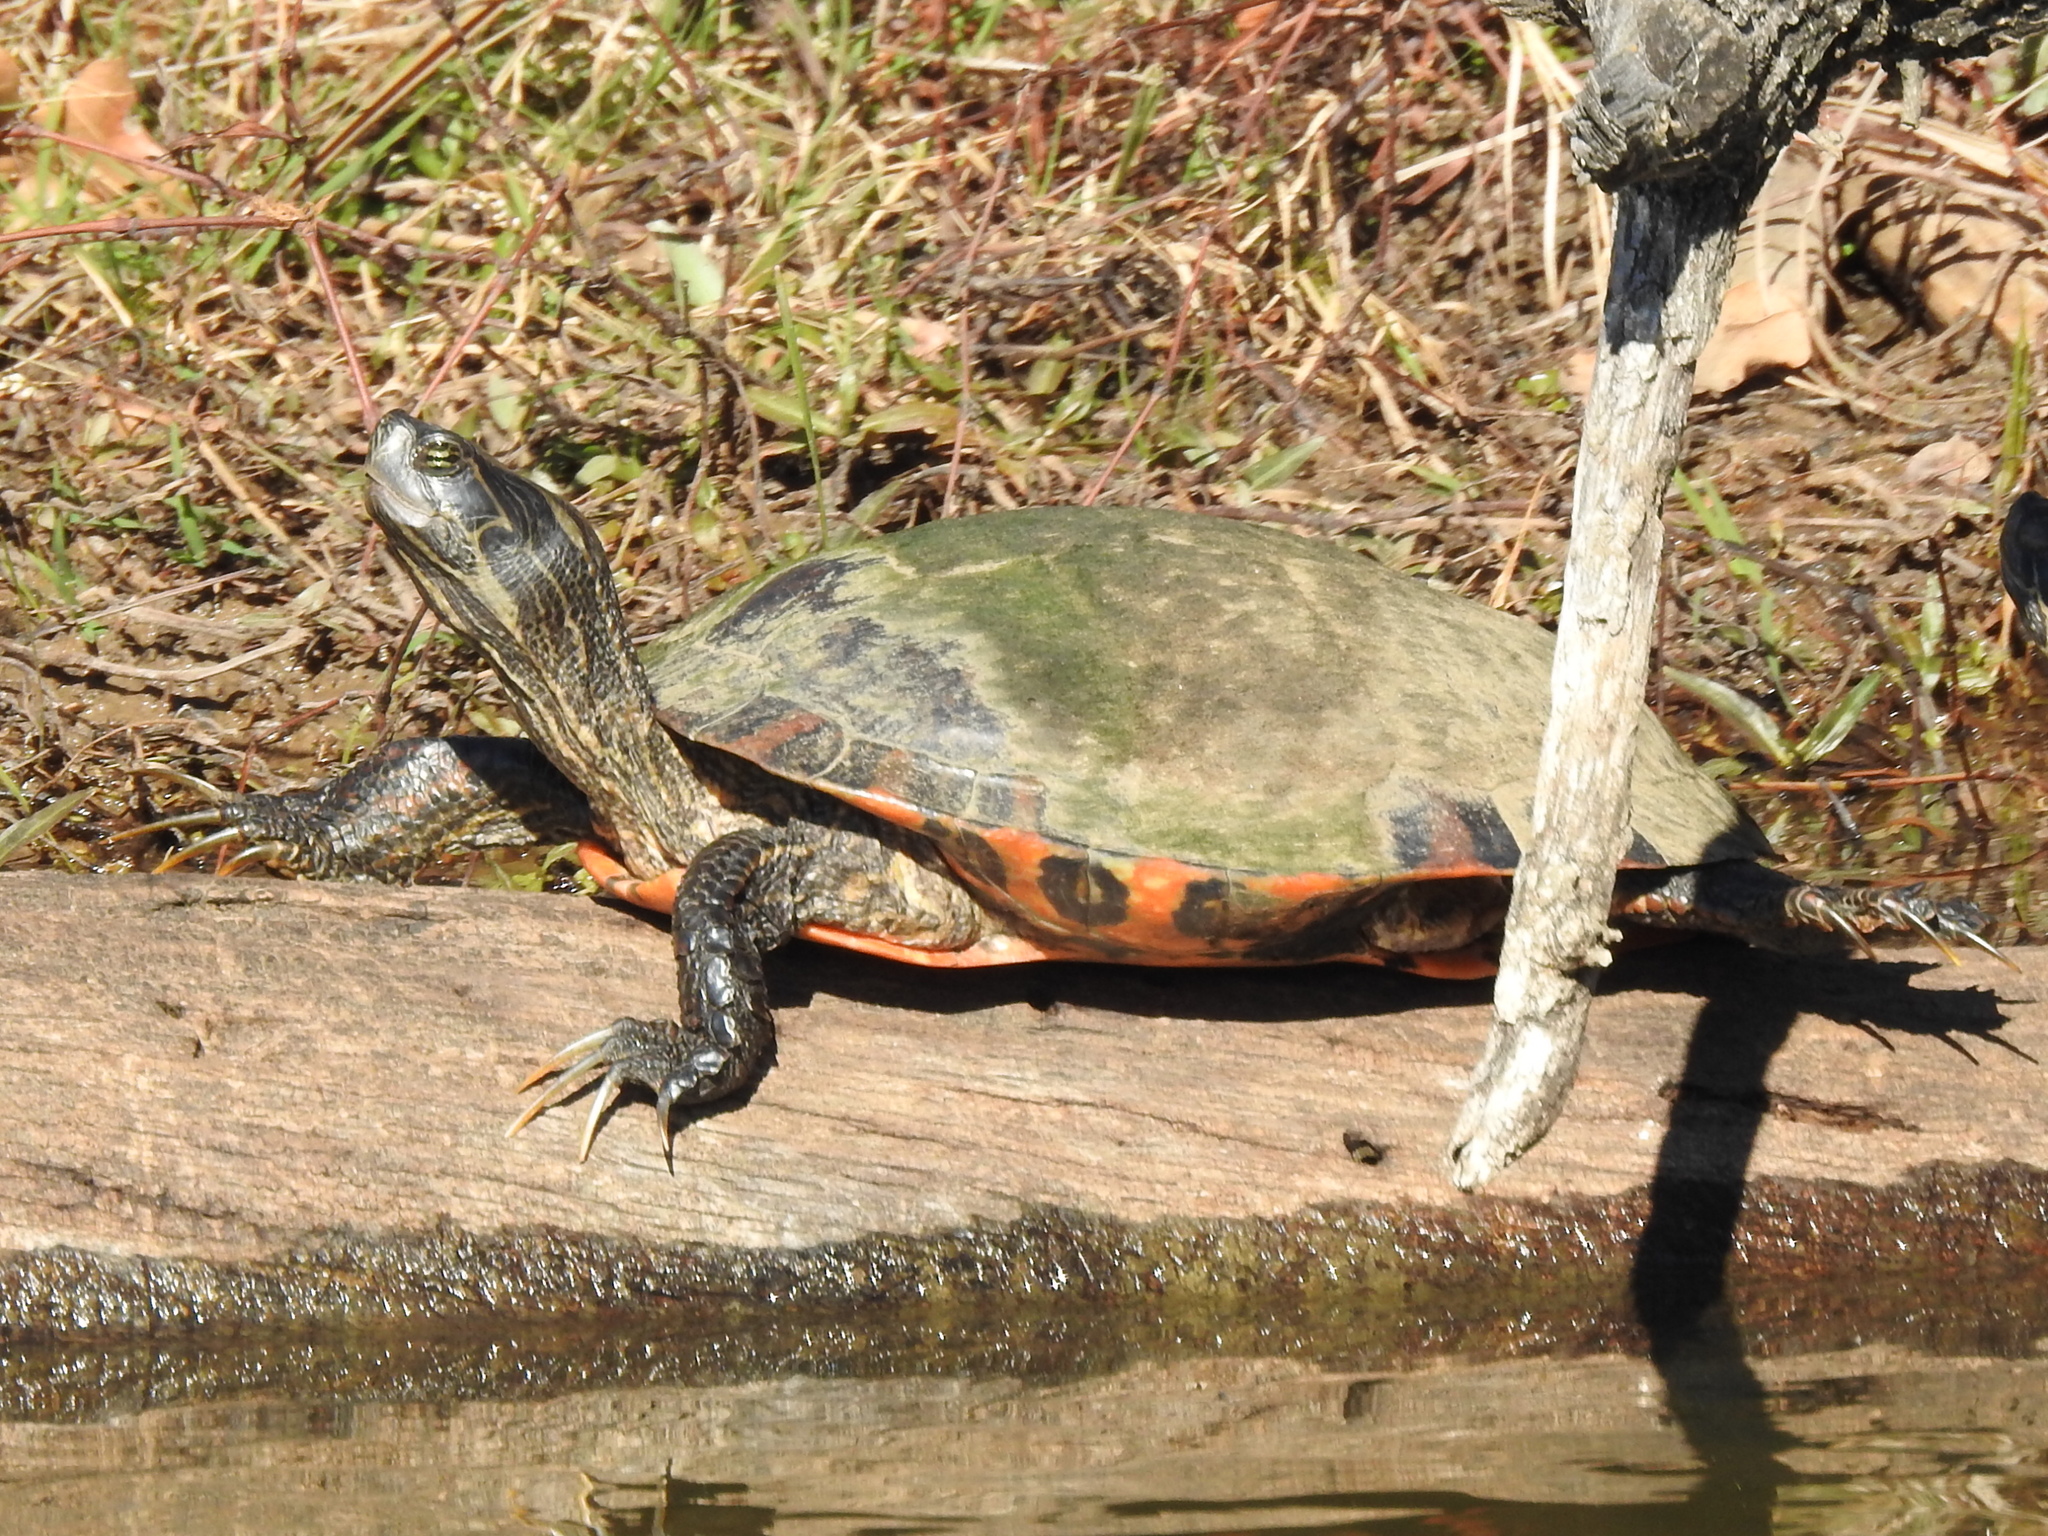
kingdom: Animalia
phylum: Chordata
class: Testudines
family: Emydidae
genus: Pseudemys
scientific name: Pseudemys concinna
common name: Eastern river cooter
